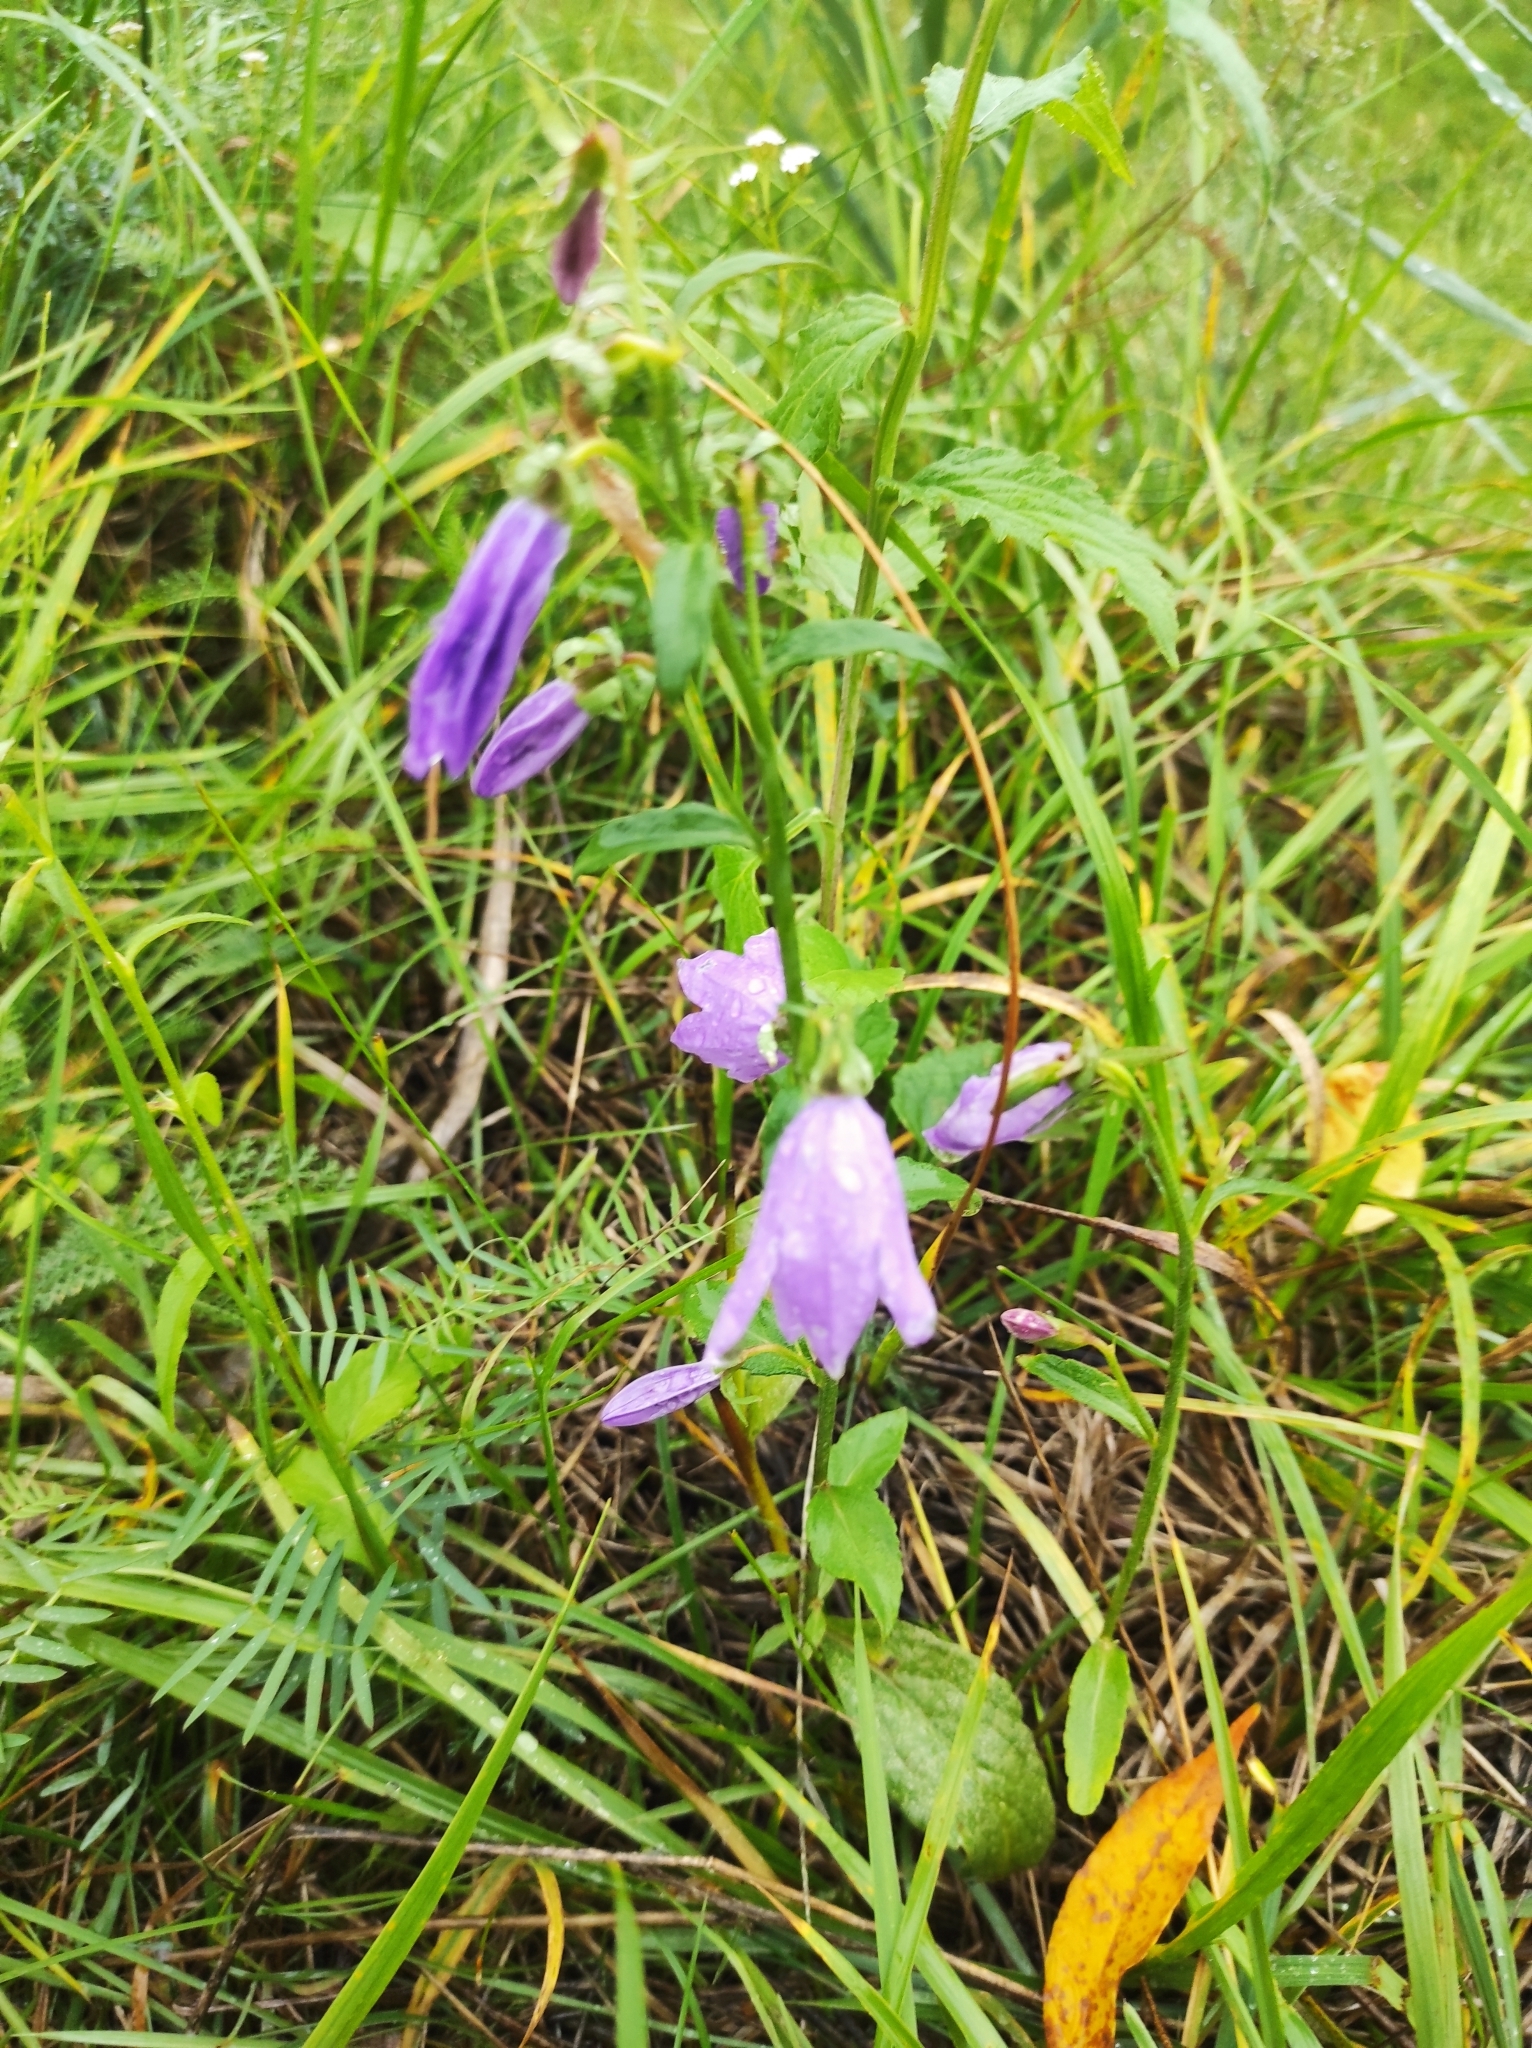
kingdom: Plantae
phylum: Tracheophyta
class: Magnoliopsida
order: Asterales
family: Campanulaceae
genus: Campanula
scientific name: Campanula rapunculoides
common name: Creeping bellflower
